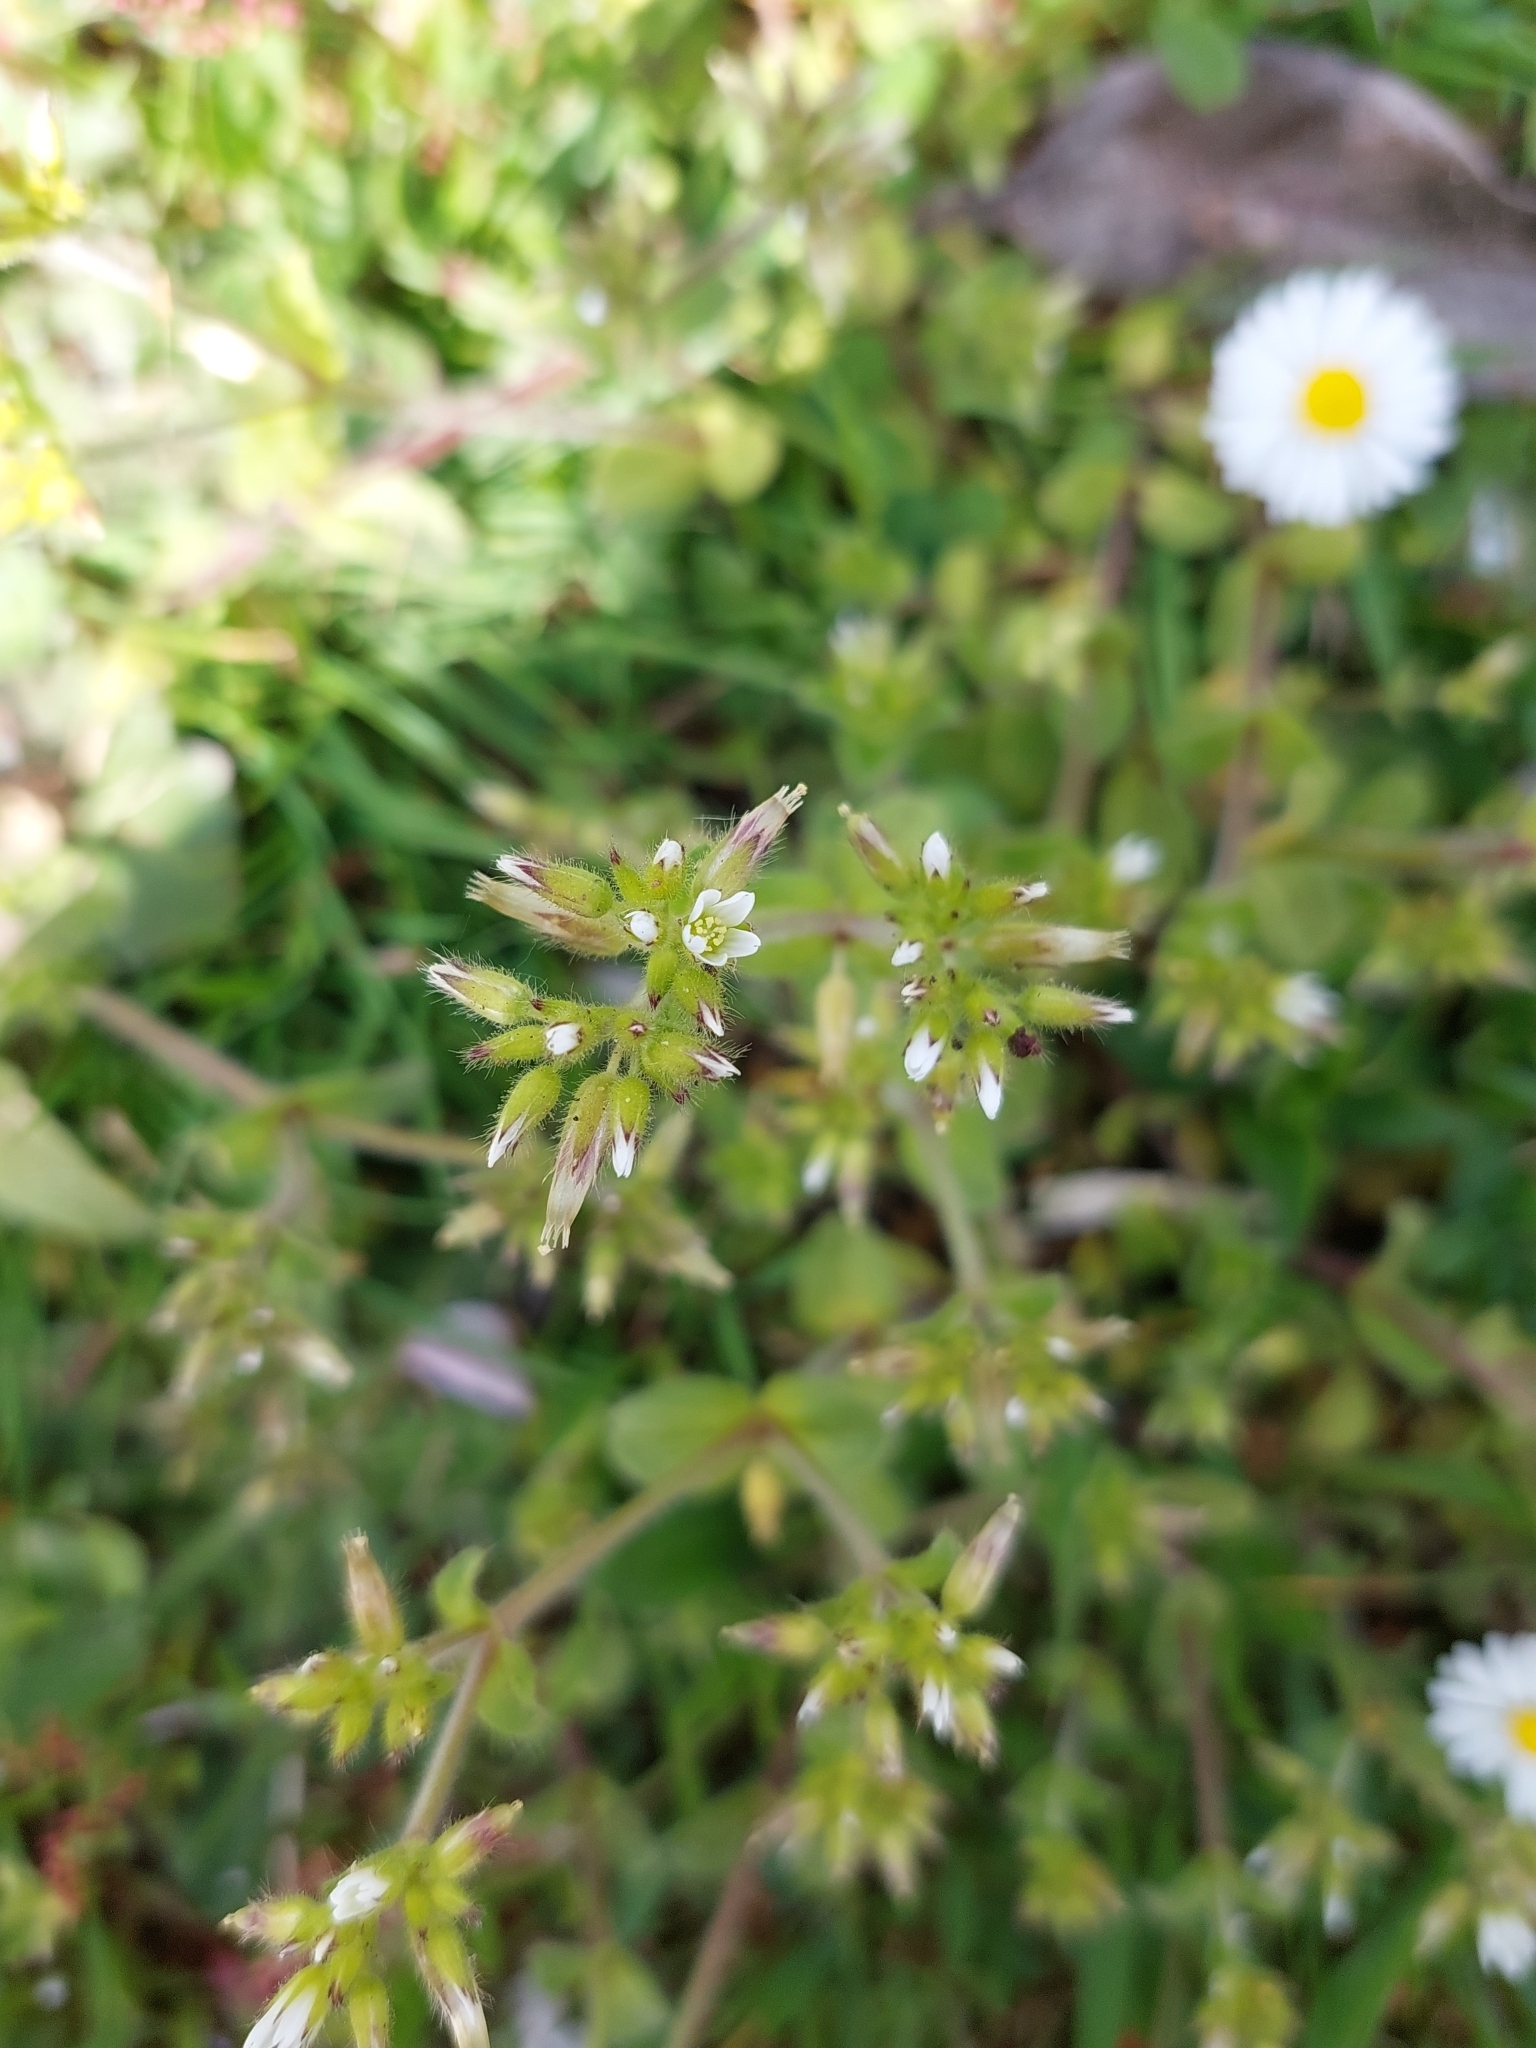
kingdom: Plantae
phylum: Tracheophyta
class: Magnoliopsida
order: Caryophyllales
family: Caryophyllaceae
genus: Cerastium
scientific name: Cerastium glomeratum
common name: Sticky chickweed
